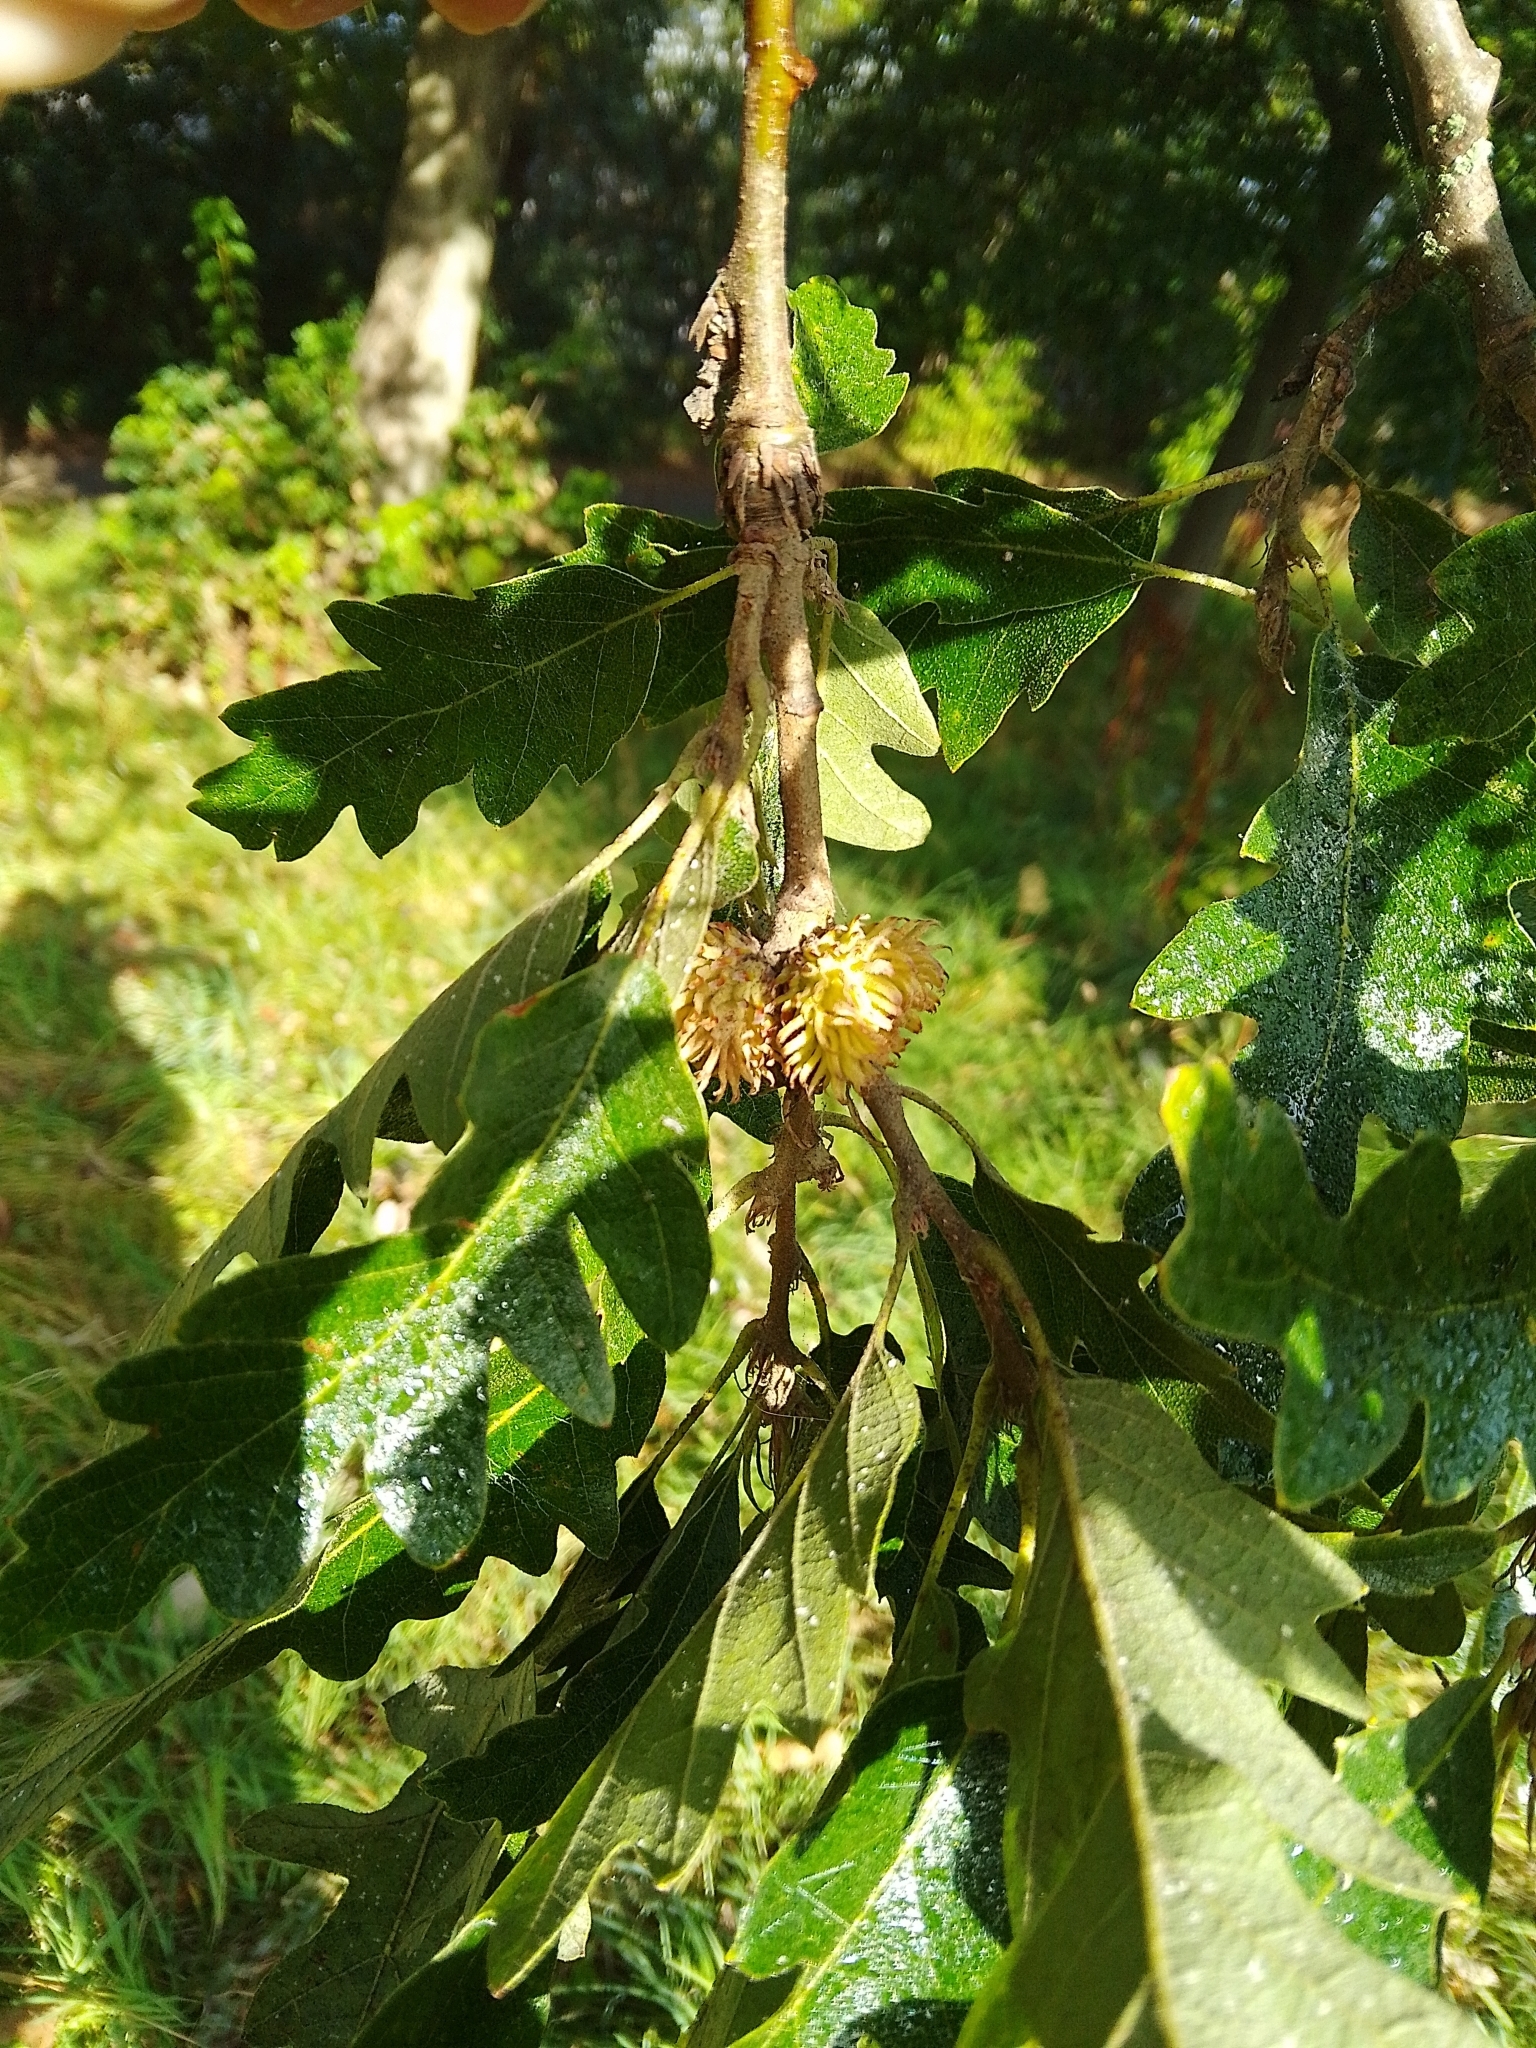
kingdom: Plantae
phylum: Tracheophyta
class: Magnoliopsida
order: Fagales
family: Fagaceae
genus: Quercus
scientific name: Quercus cerris
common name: Turkey oak
